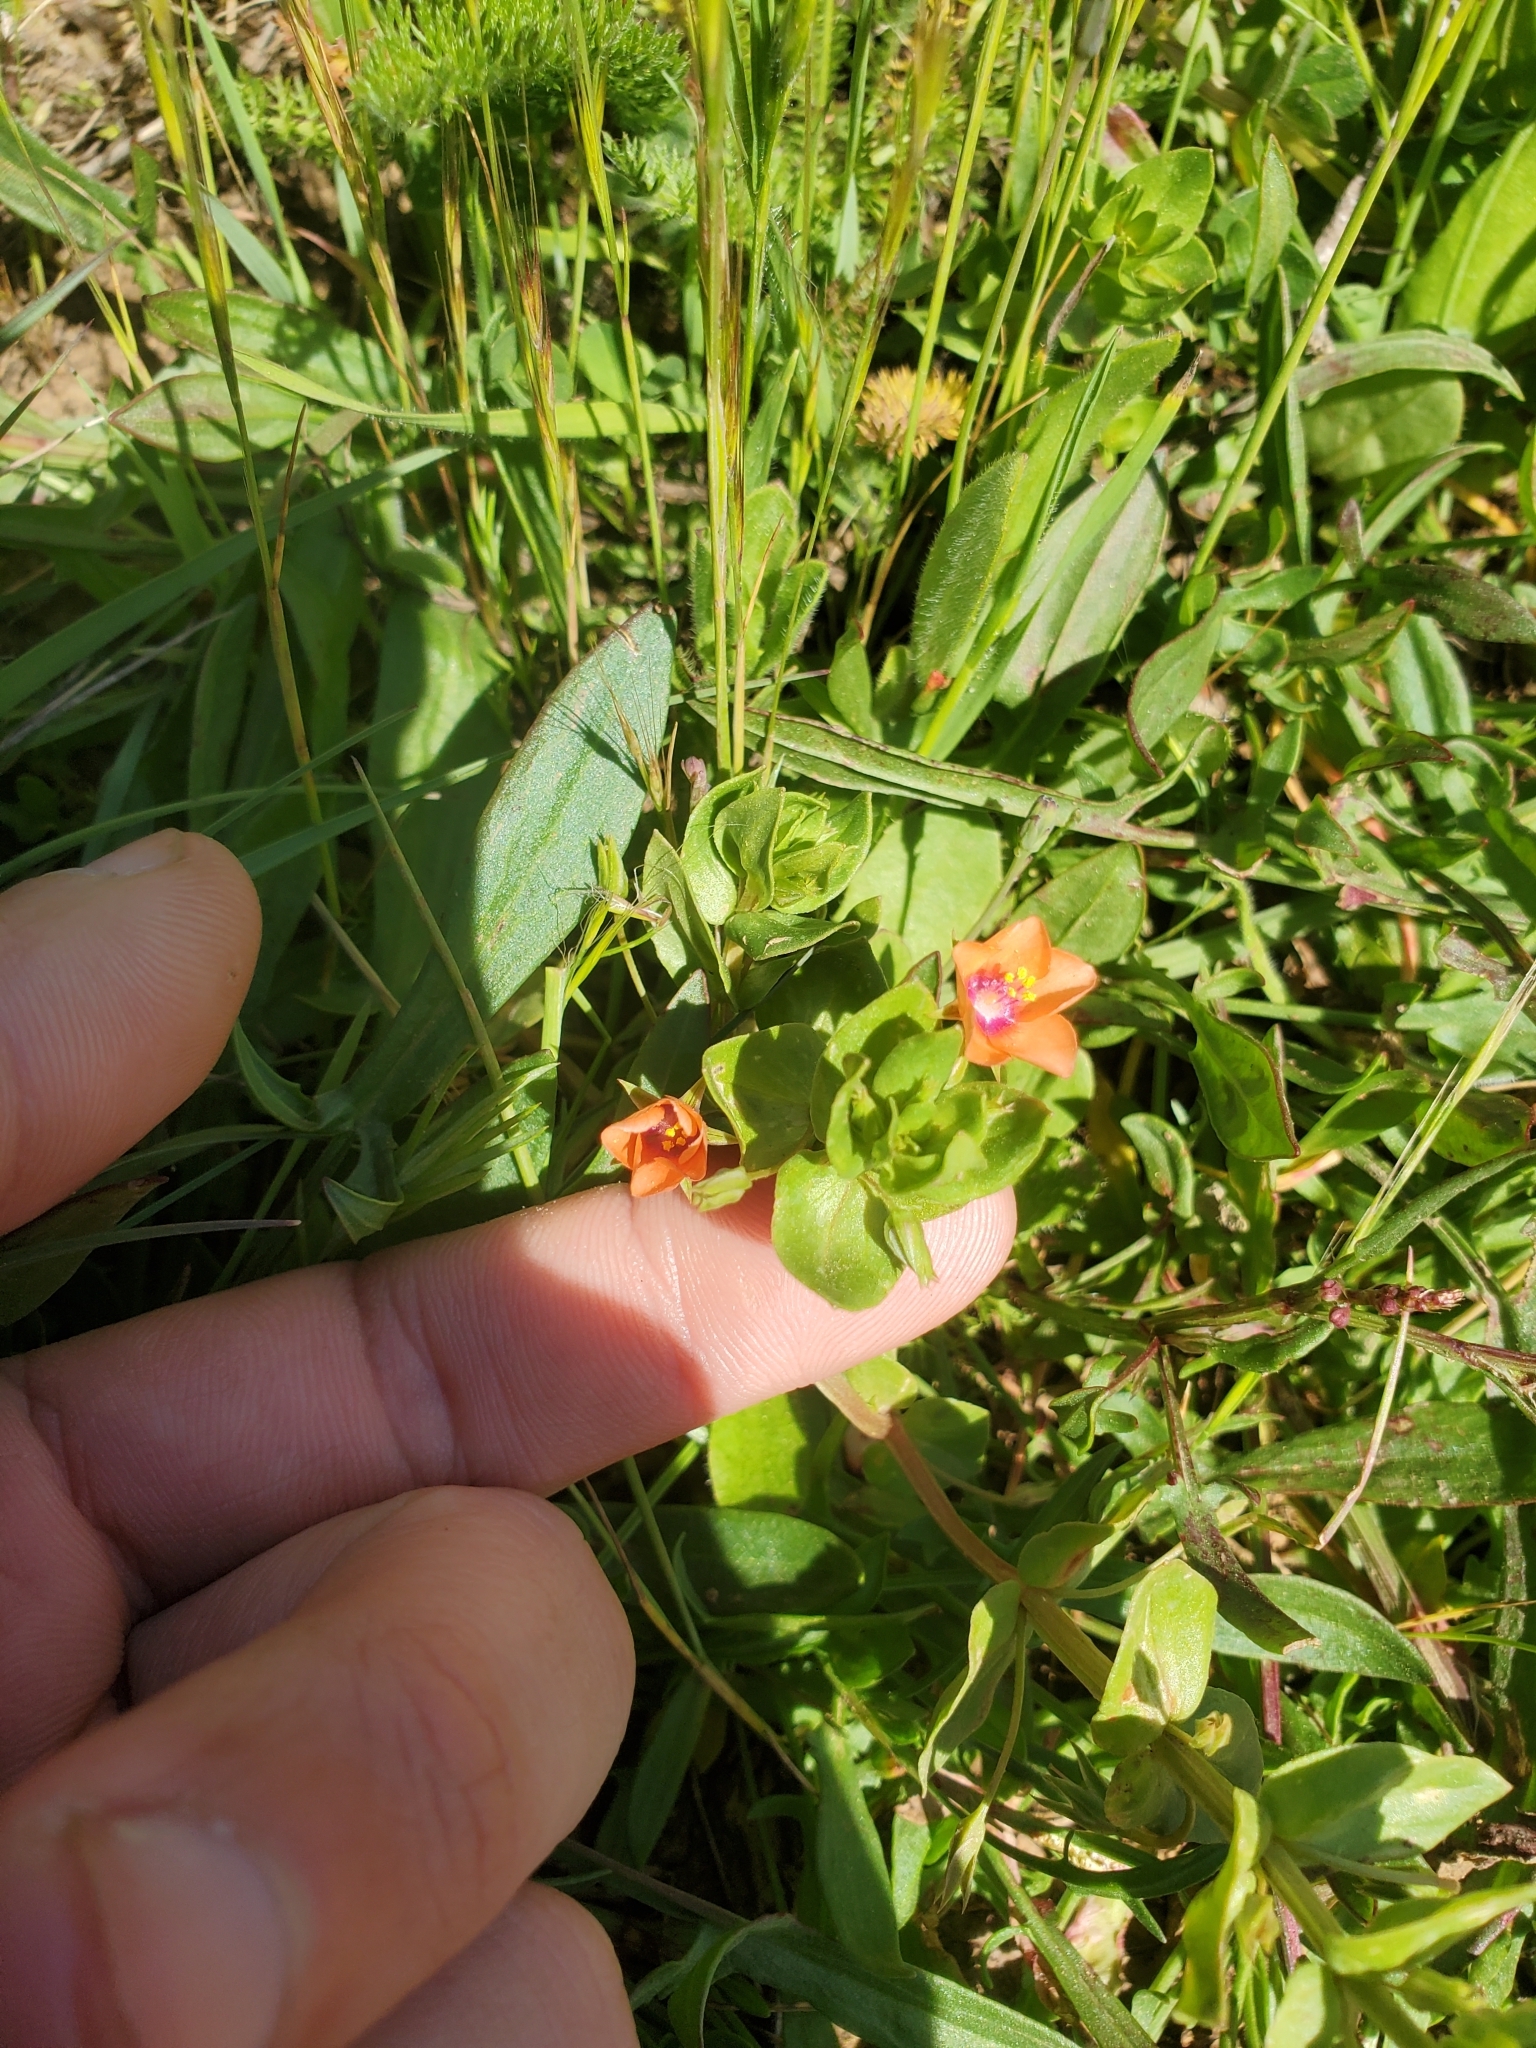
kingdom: Plantae
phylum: Tracheophyta
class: Magnoliopsida
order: Ericales
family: Primulaceae
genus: Lysimachia
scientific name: Lysimachia arvensis
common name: Scarlet pimpernel
